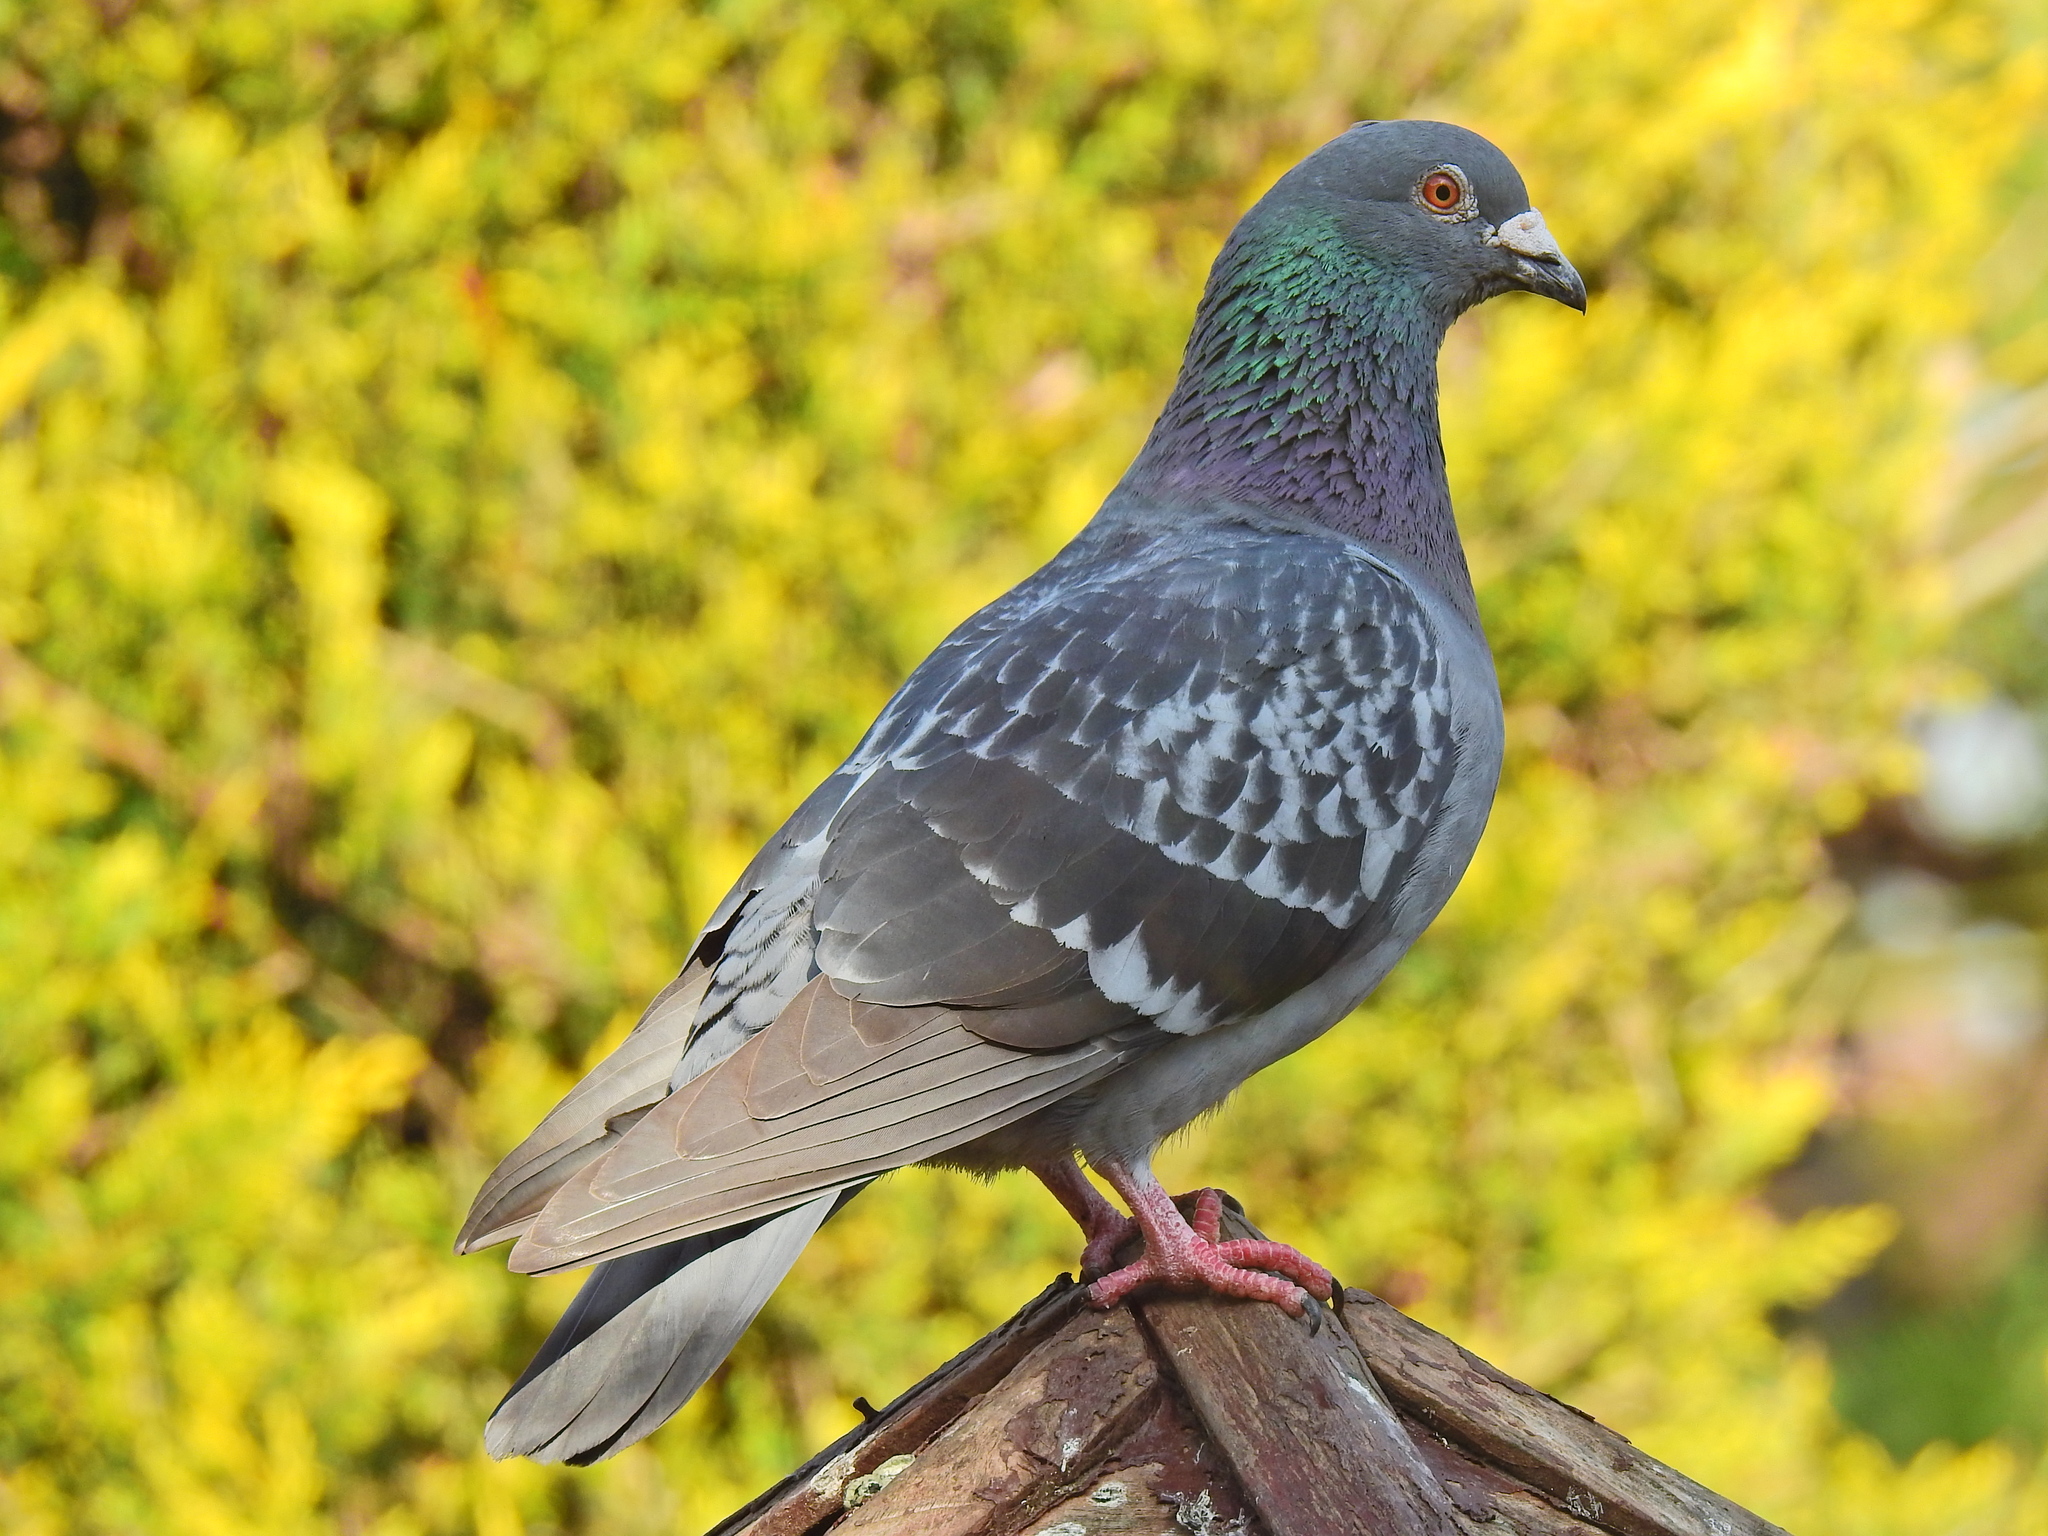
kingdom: Animalia
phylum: Chordata
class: Aves
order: Columbiformes
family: Columbidae
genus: Columba
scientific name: Columba livia
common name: Rock pigeon
